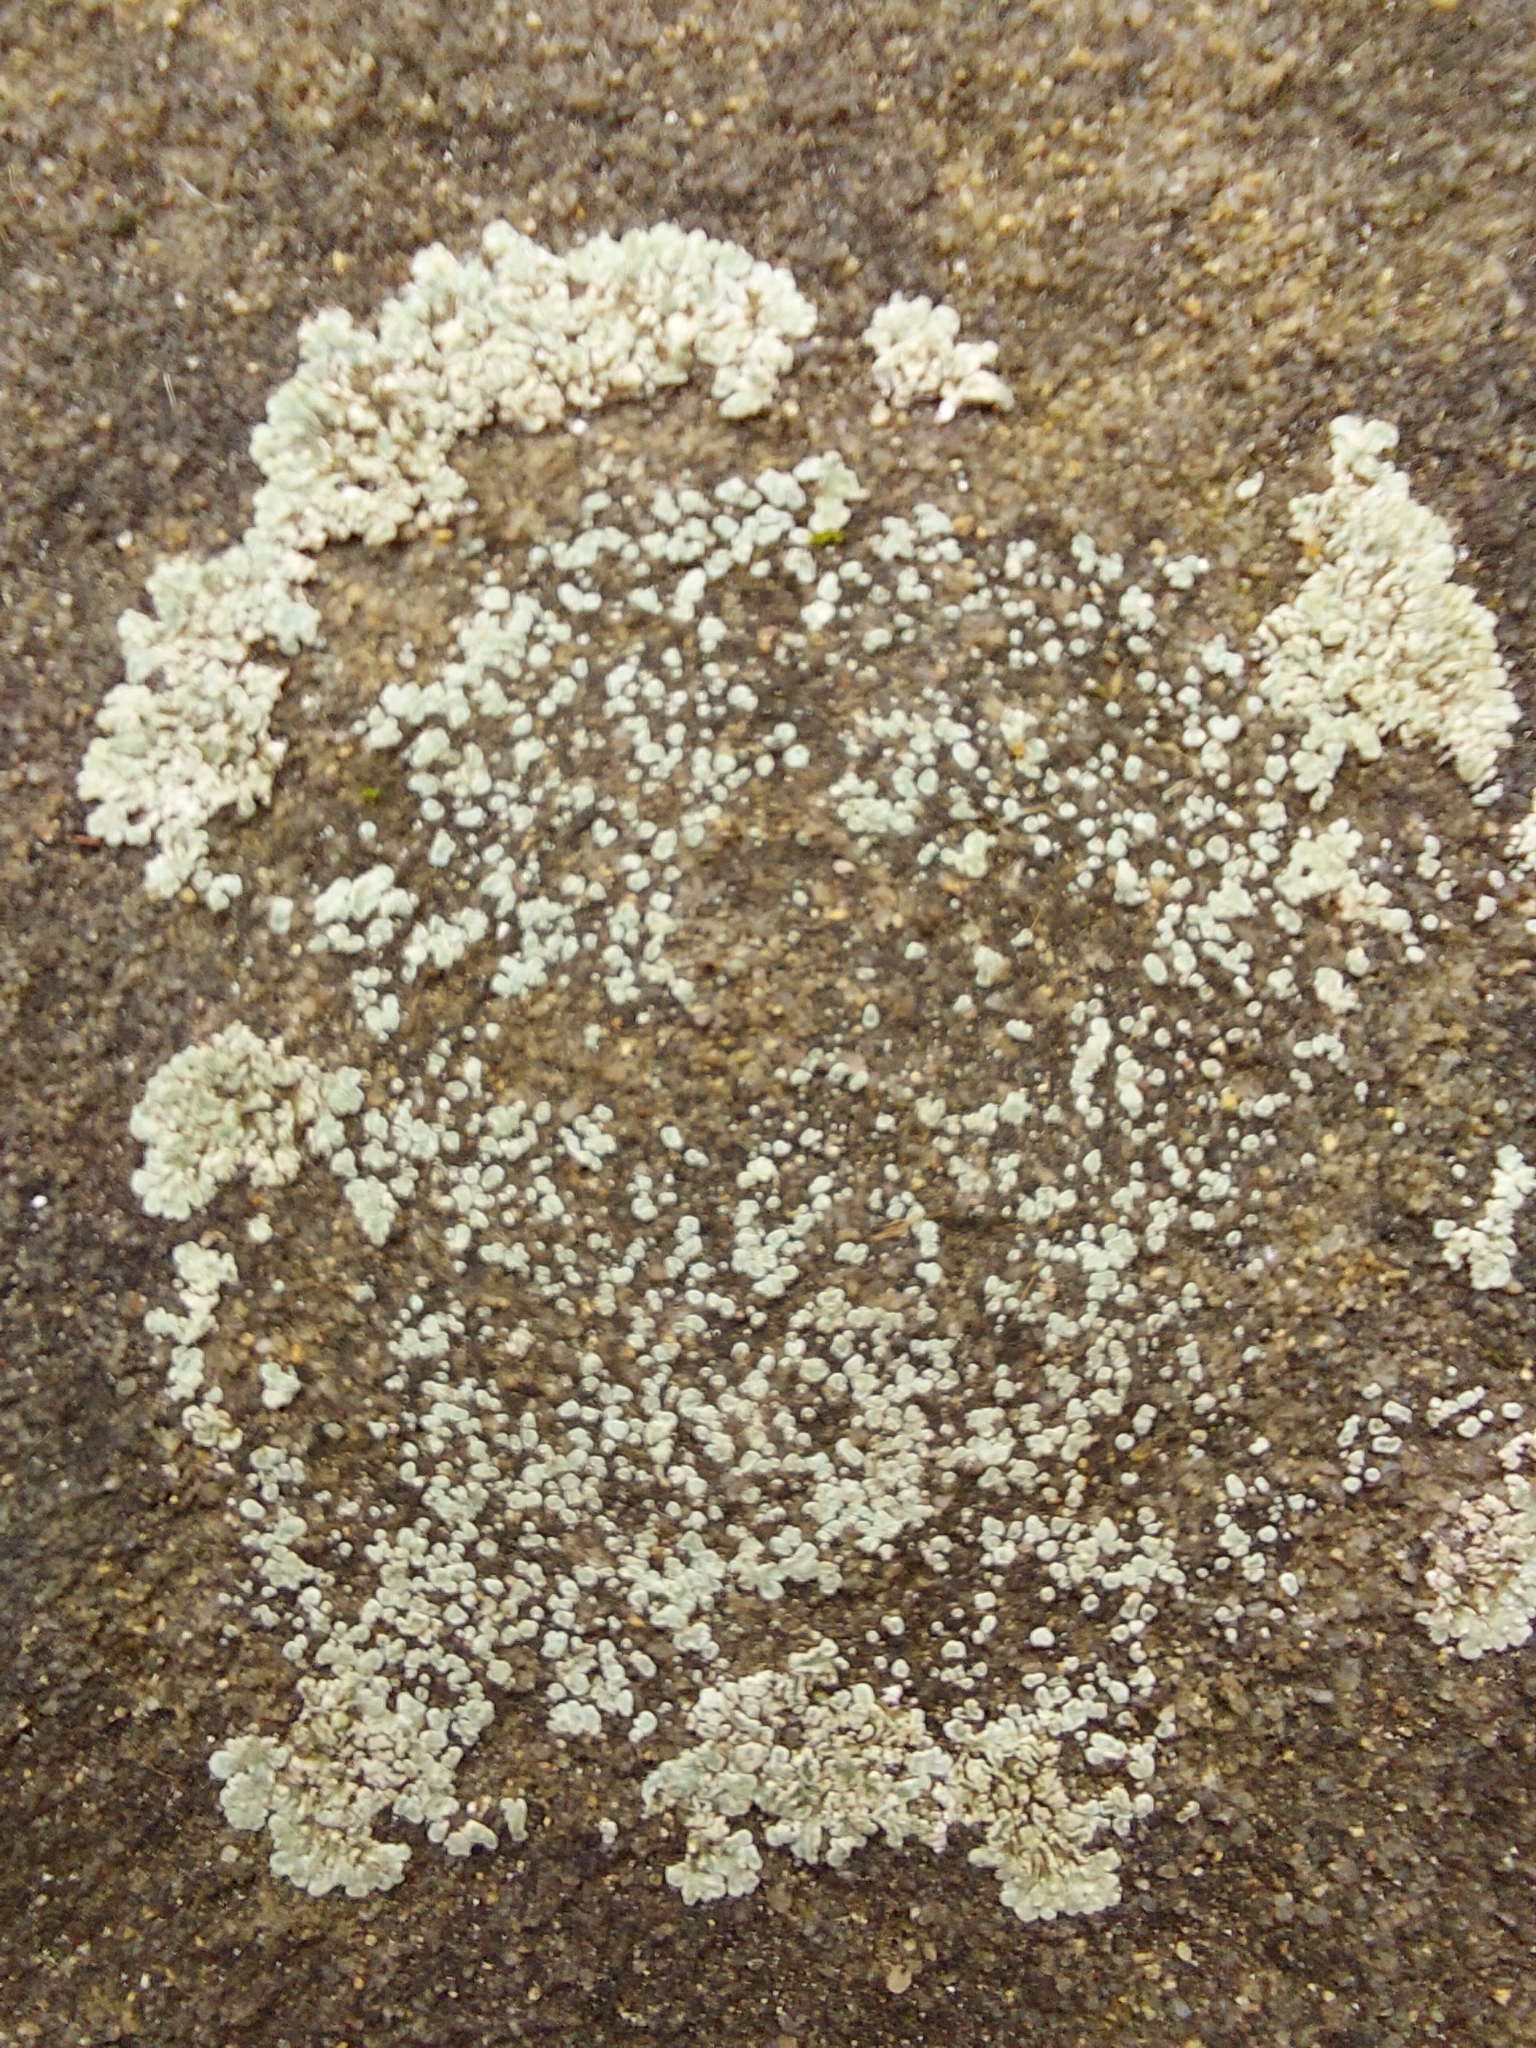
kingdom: Fungi
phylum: Ascomycota
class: Lecanoromycetes
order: Lecanorales
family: Lecanoraceae
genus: Protoparmeliopsis
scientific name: Protoparmeliopsis muralis
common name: Stonewall rim lichen
